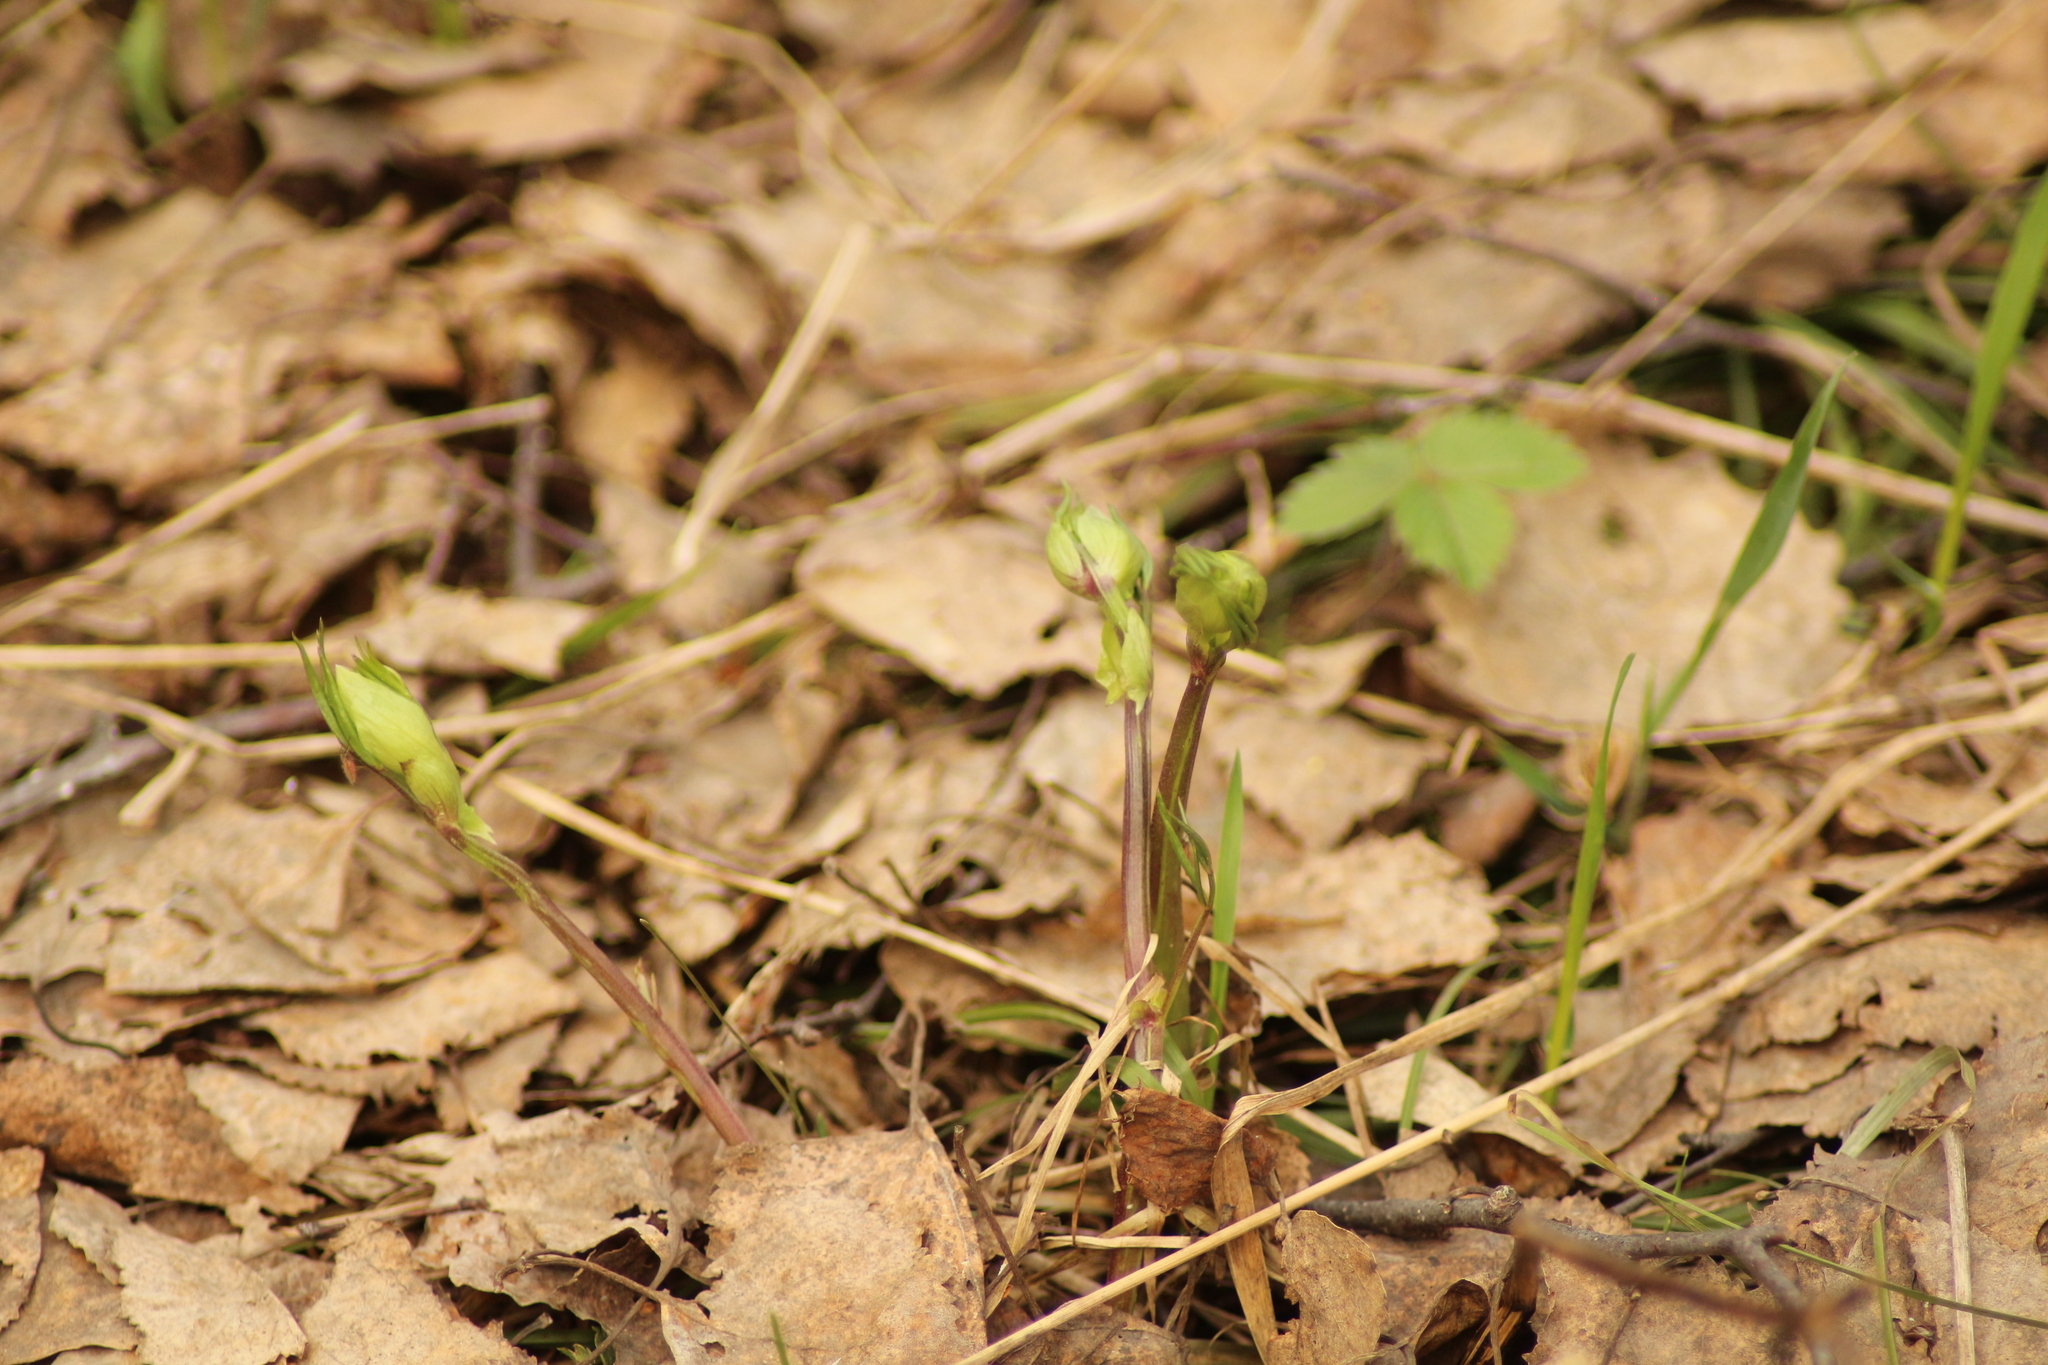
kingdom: Plantae
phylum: Tracheophyta
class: Magnoliopsida
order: Fabales
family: Fabaceae
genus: Lathyrus
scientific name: Lathyrus vernus
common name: Spring pea
